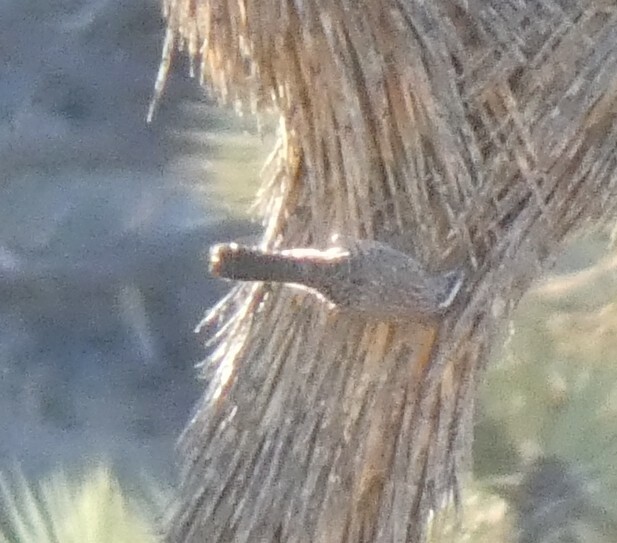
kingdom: Animalia
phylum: Chordata
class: Aves
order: Passeriformes
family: Troglodytidae
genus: Campylorhynchus
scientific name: Campylorhynchus brunneicapillus
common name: Cactus wren
